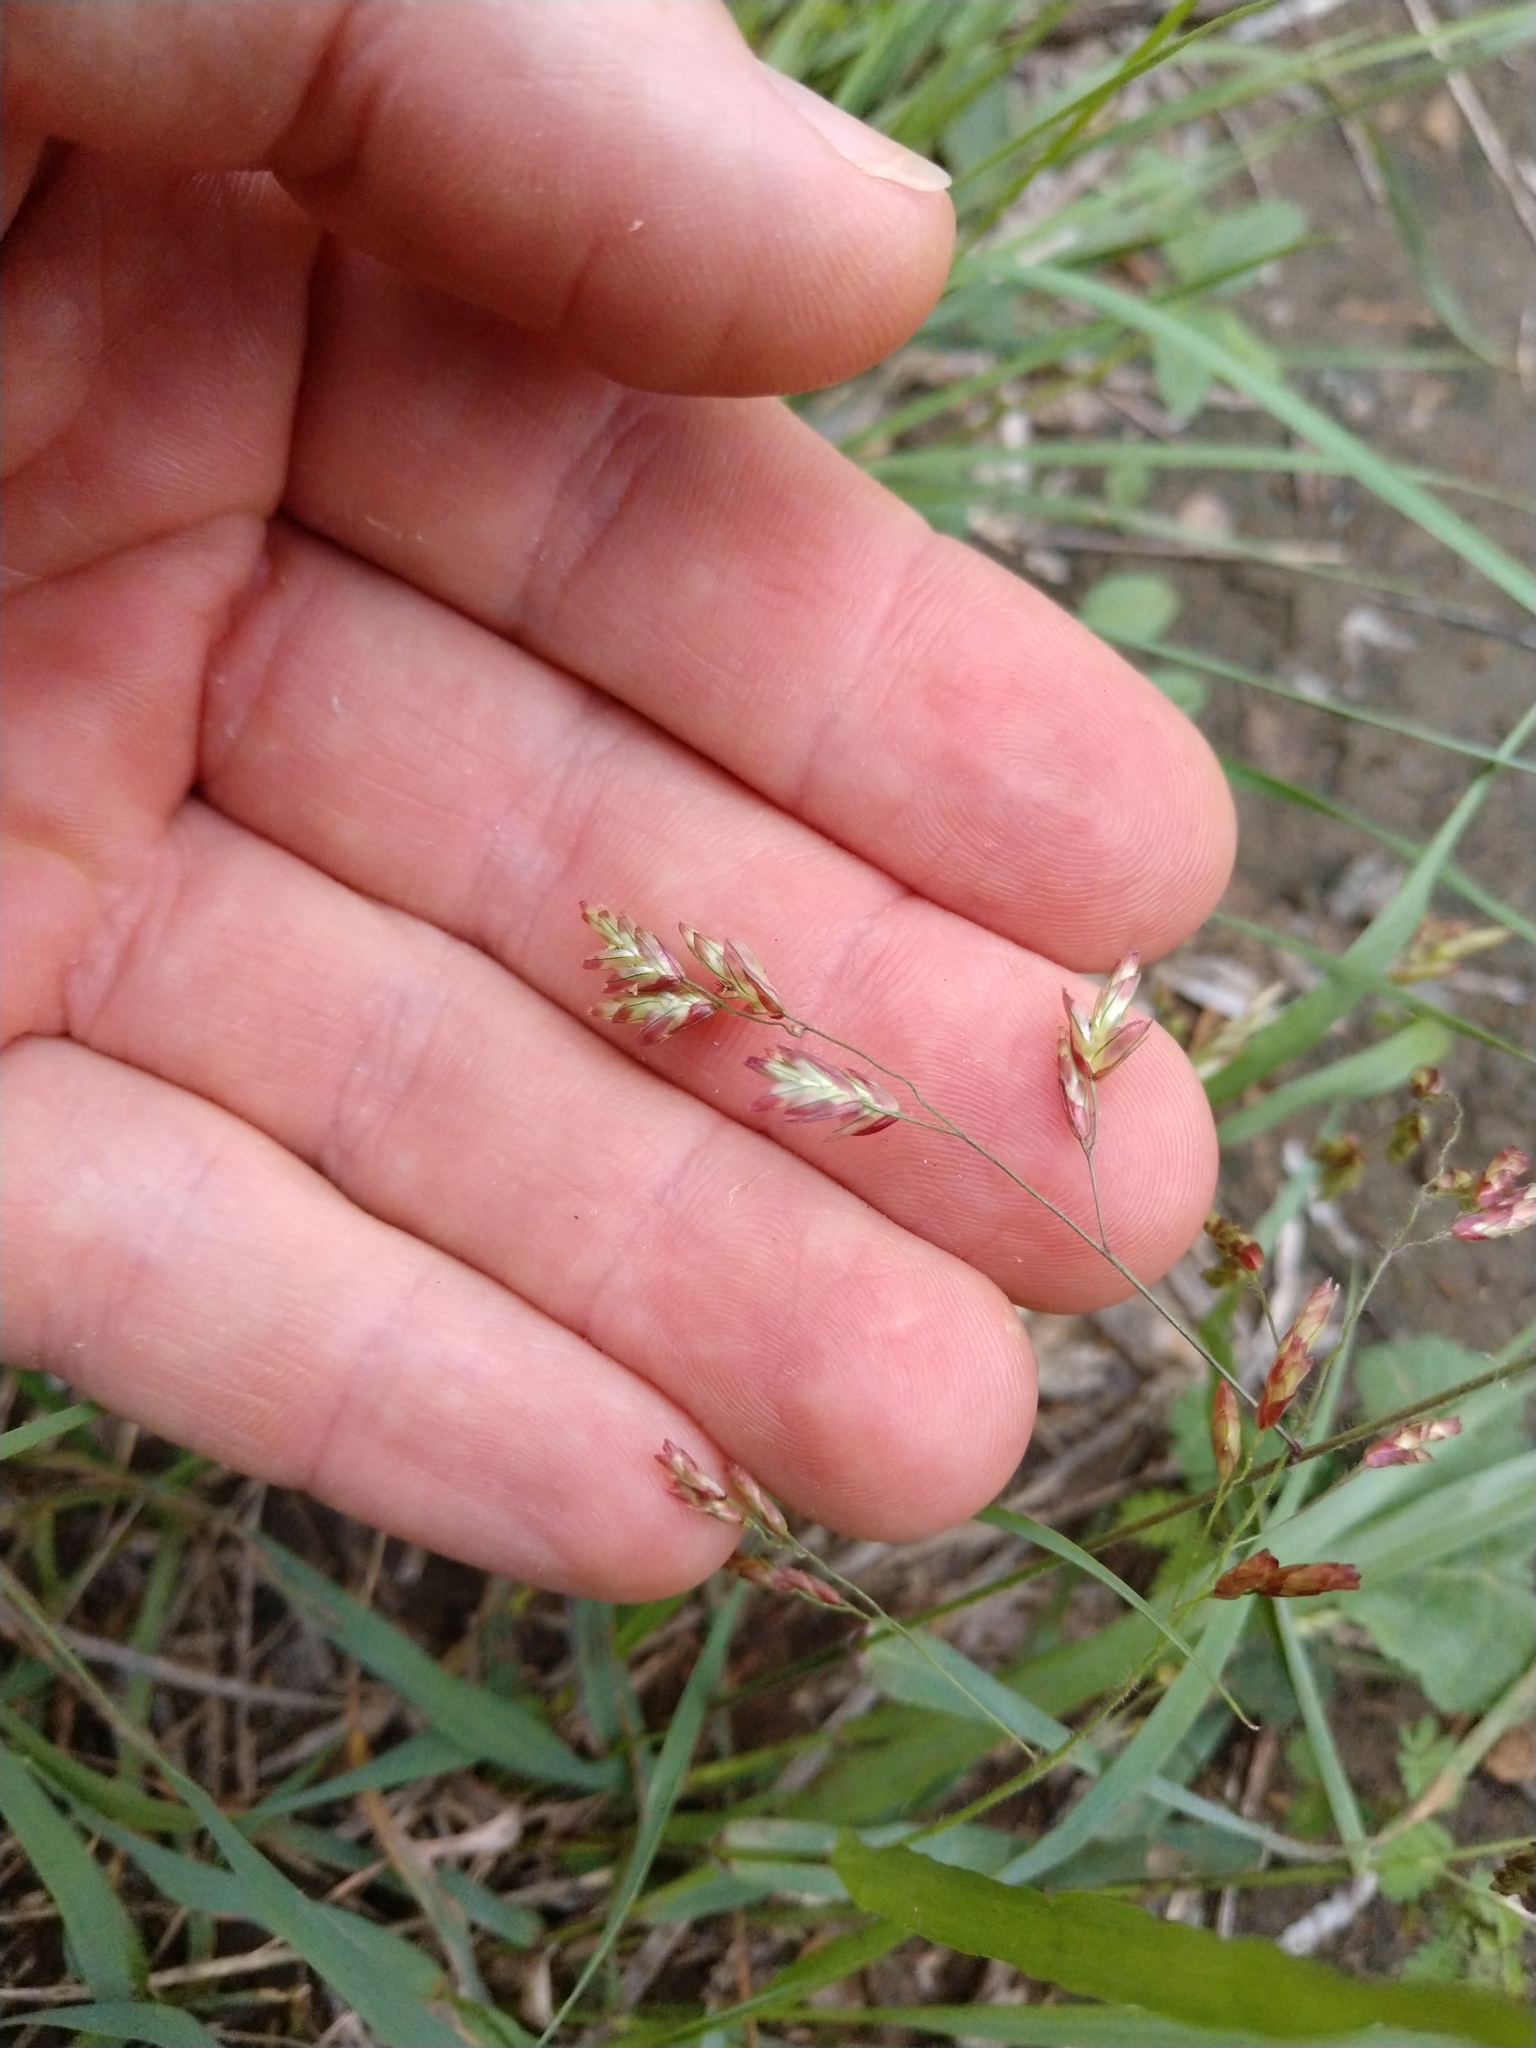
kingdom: Plantae
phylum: Tracheophyta
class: Liliopsida
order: Poales
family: Poaceae
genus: Tridens
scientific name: Tridens texanus
